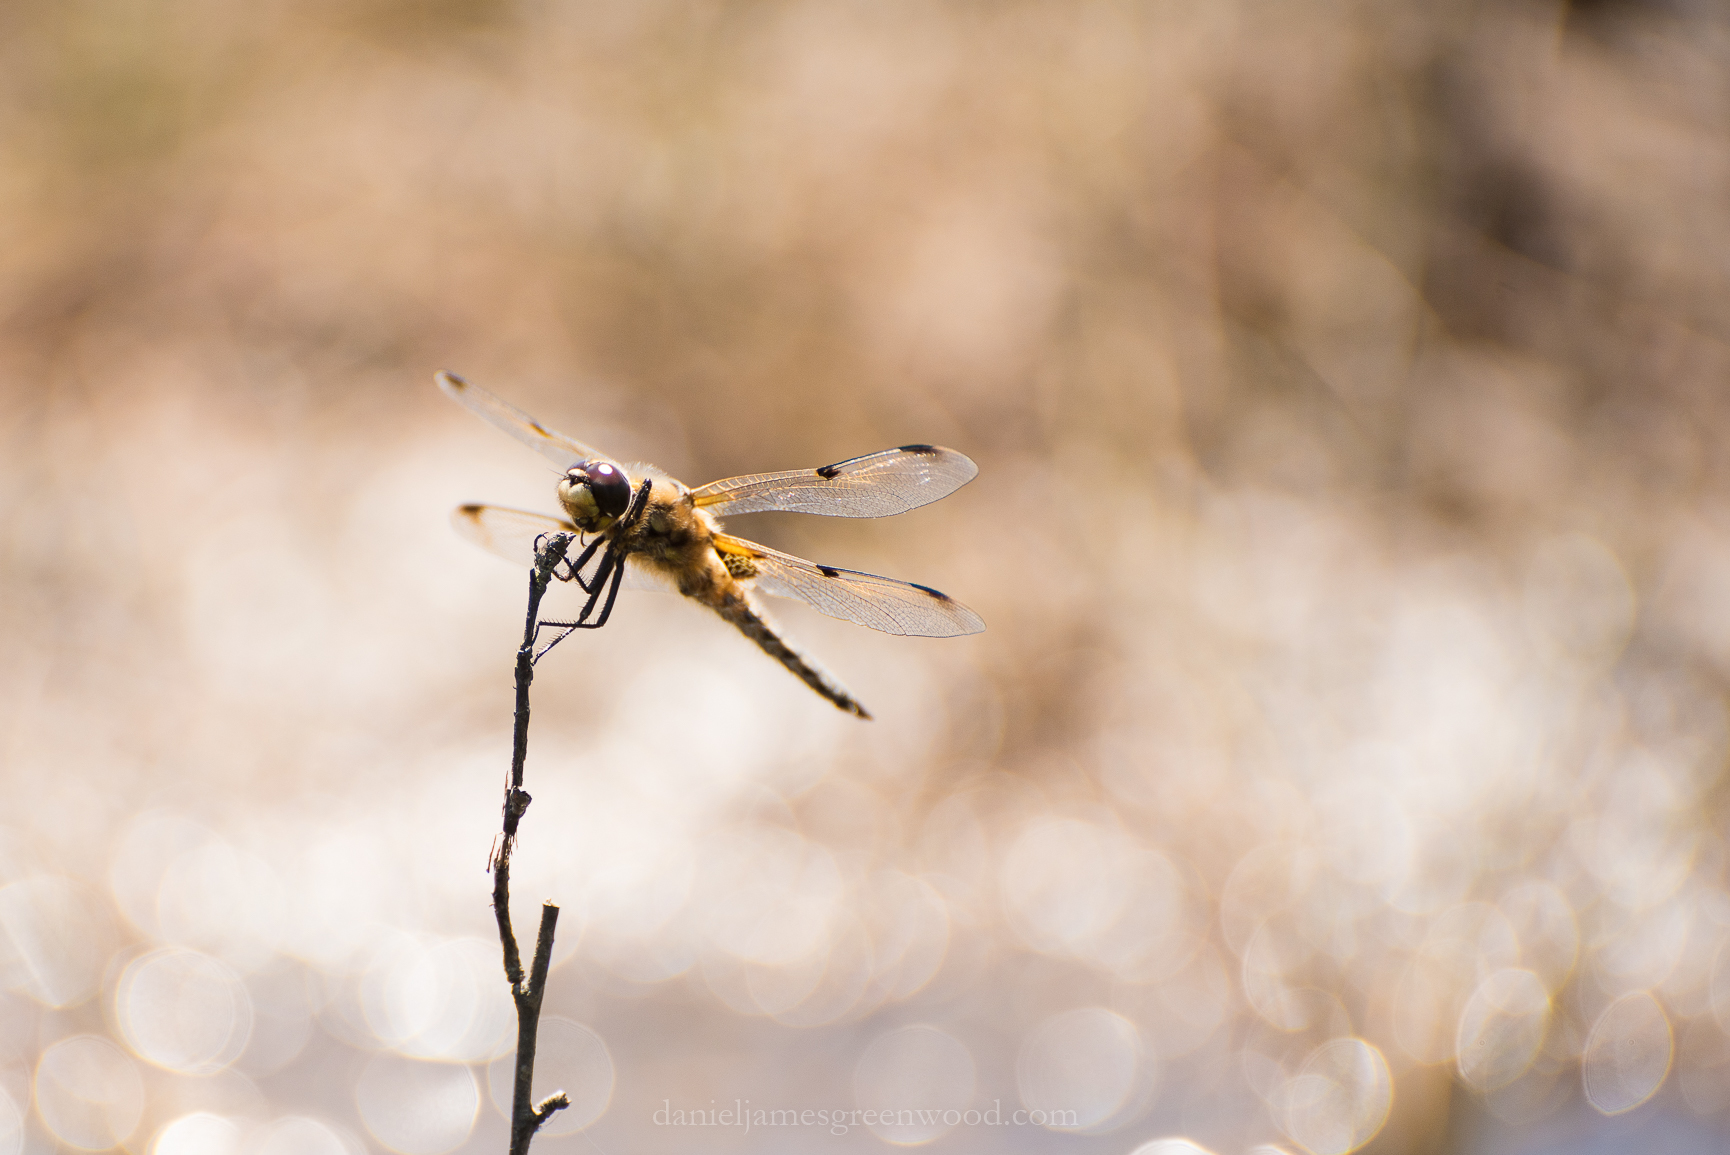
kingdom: Animalia
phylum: Arthropoda
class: Insecta
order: Odonata
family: Libellulidae
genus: Libellula
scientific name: Libellula quadrimaculata
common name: Four-spotted chaser
